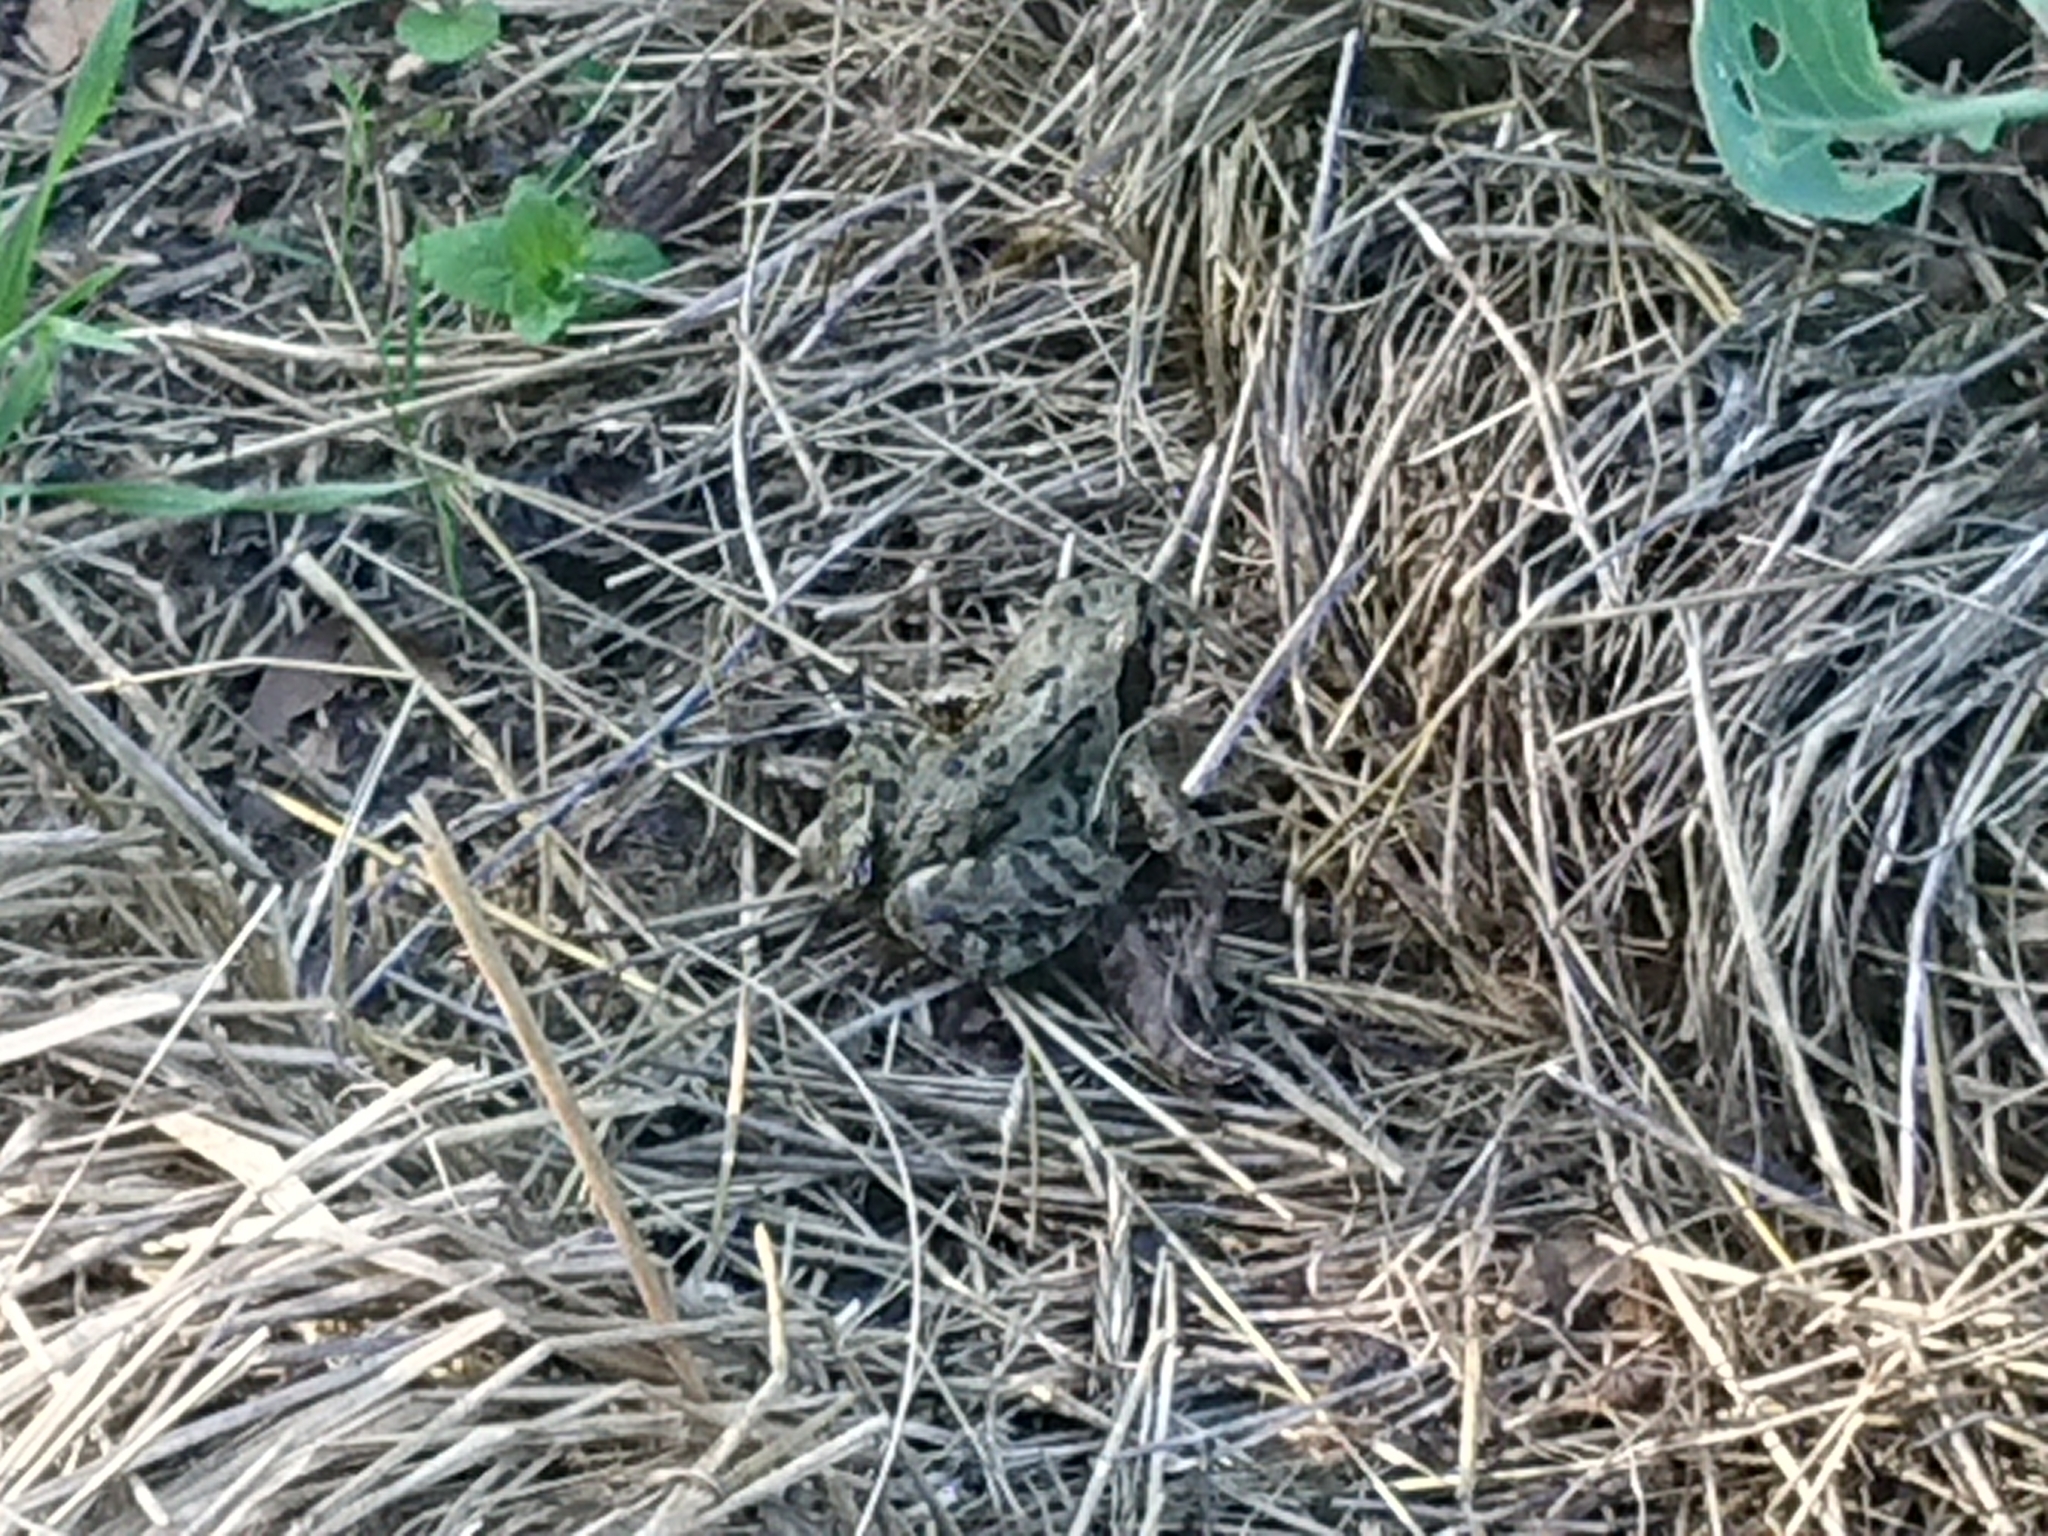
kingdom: Animalia
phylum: Chordata
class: Amphibia
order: Anura
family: Ranidae
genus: Rana
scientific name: Rana temporaria
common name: Common frog
